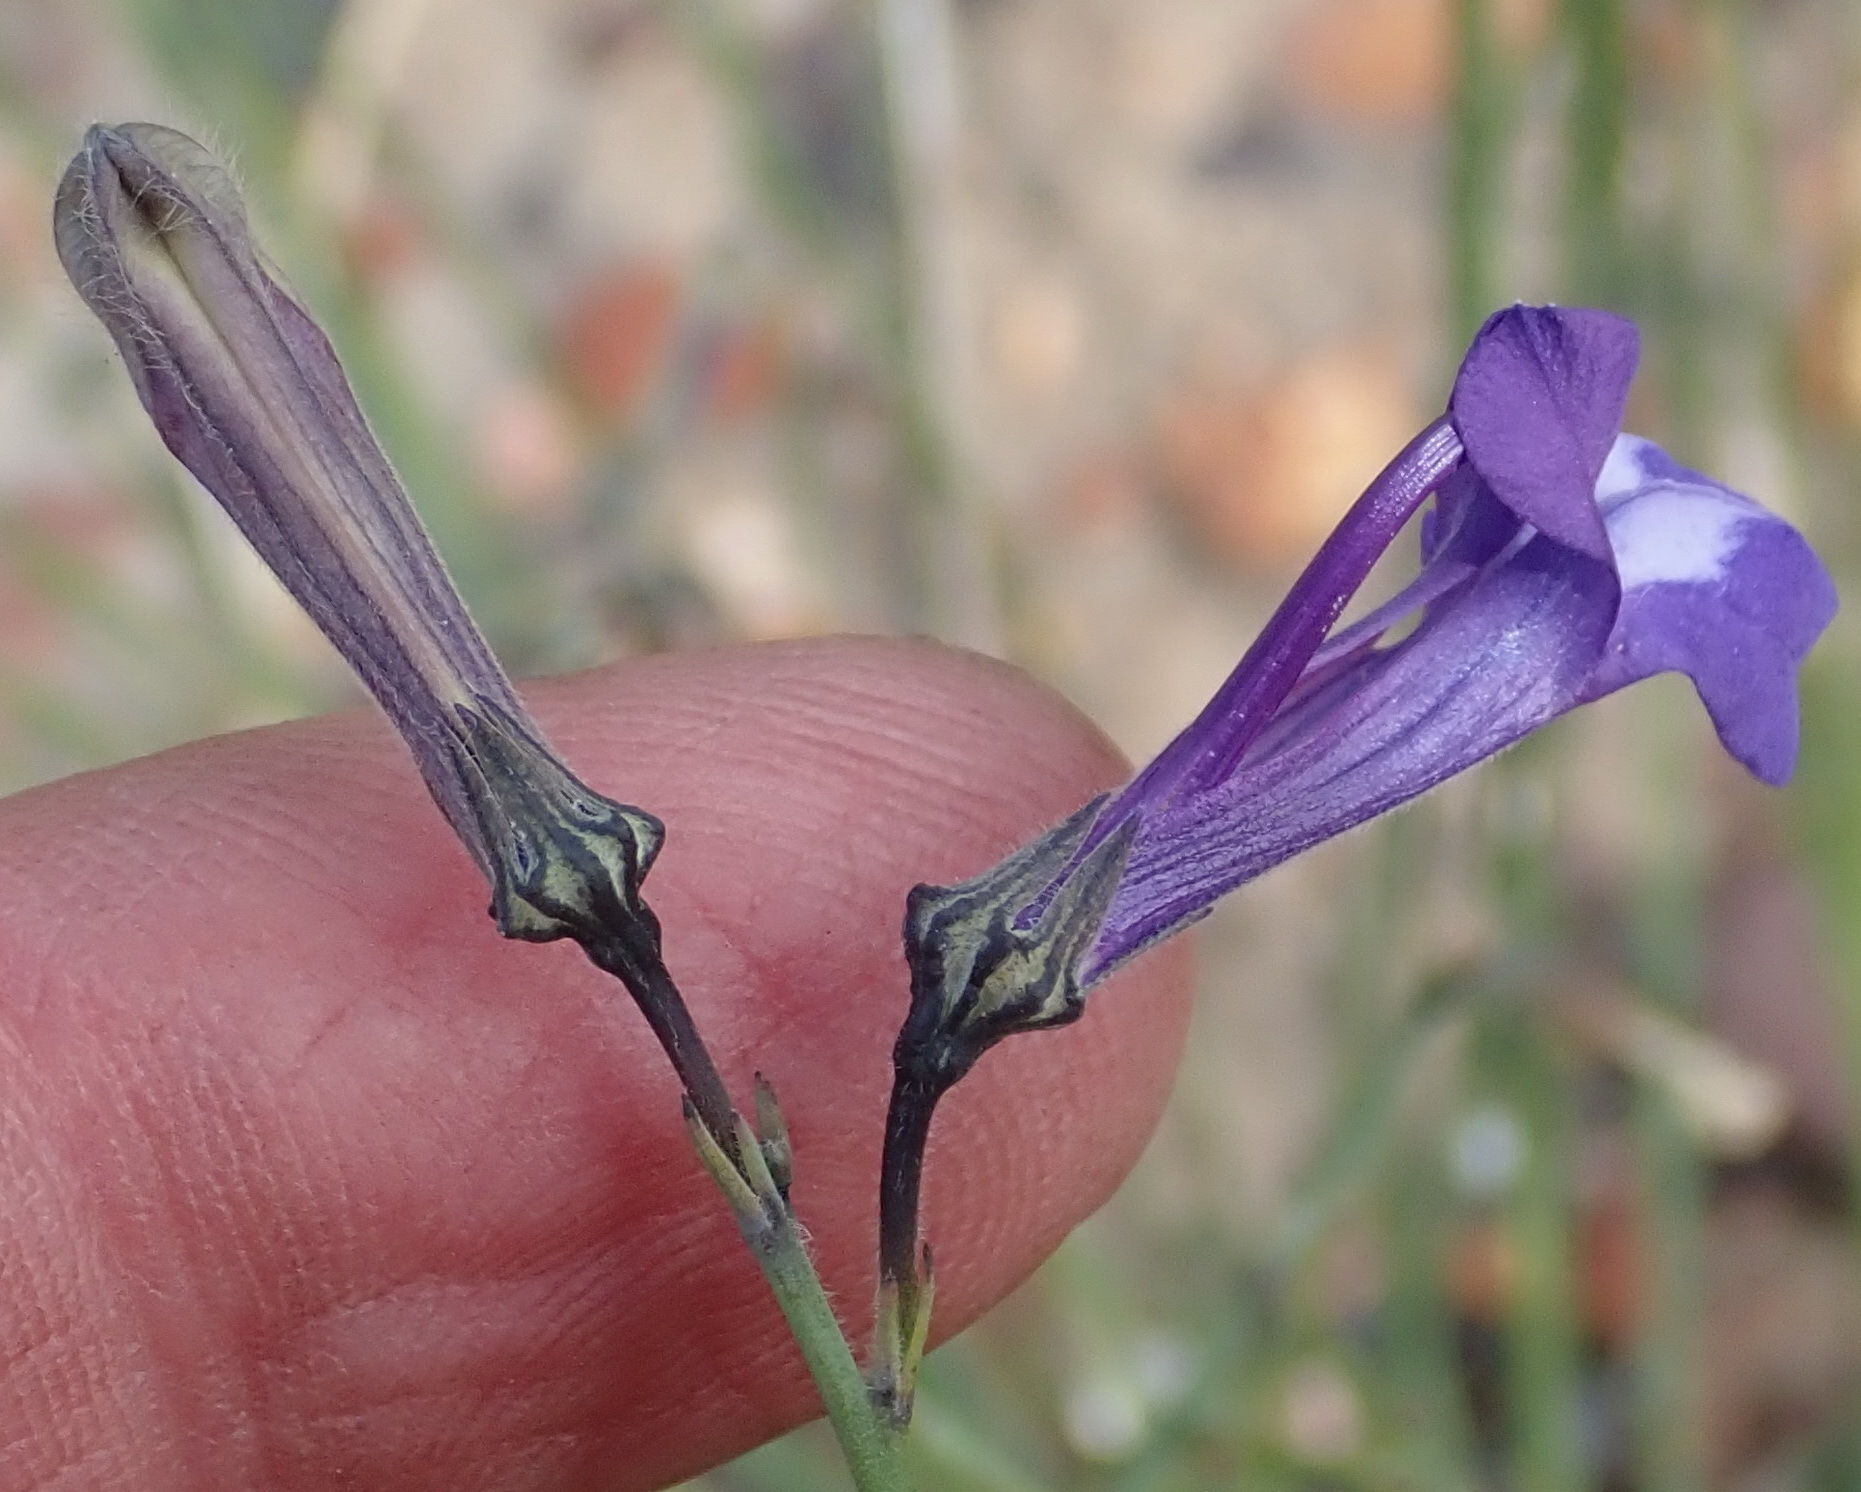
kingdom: Plantae
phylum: Tracheophyta
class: Magnoliopsida
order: Asterales
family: Campanulaceae
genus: Lobelia
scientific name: Lobelia linearis
